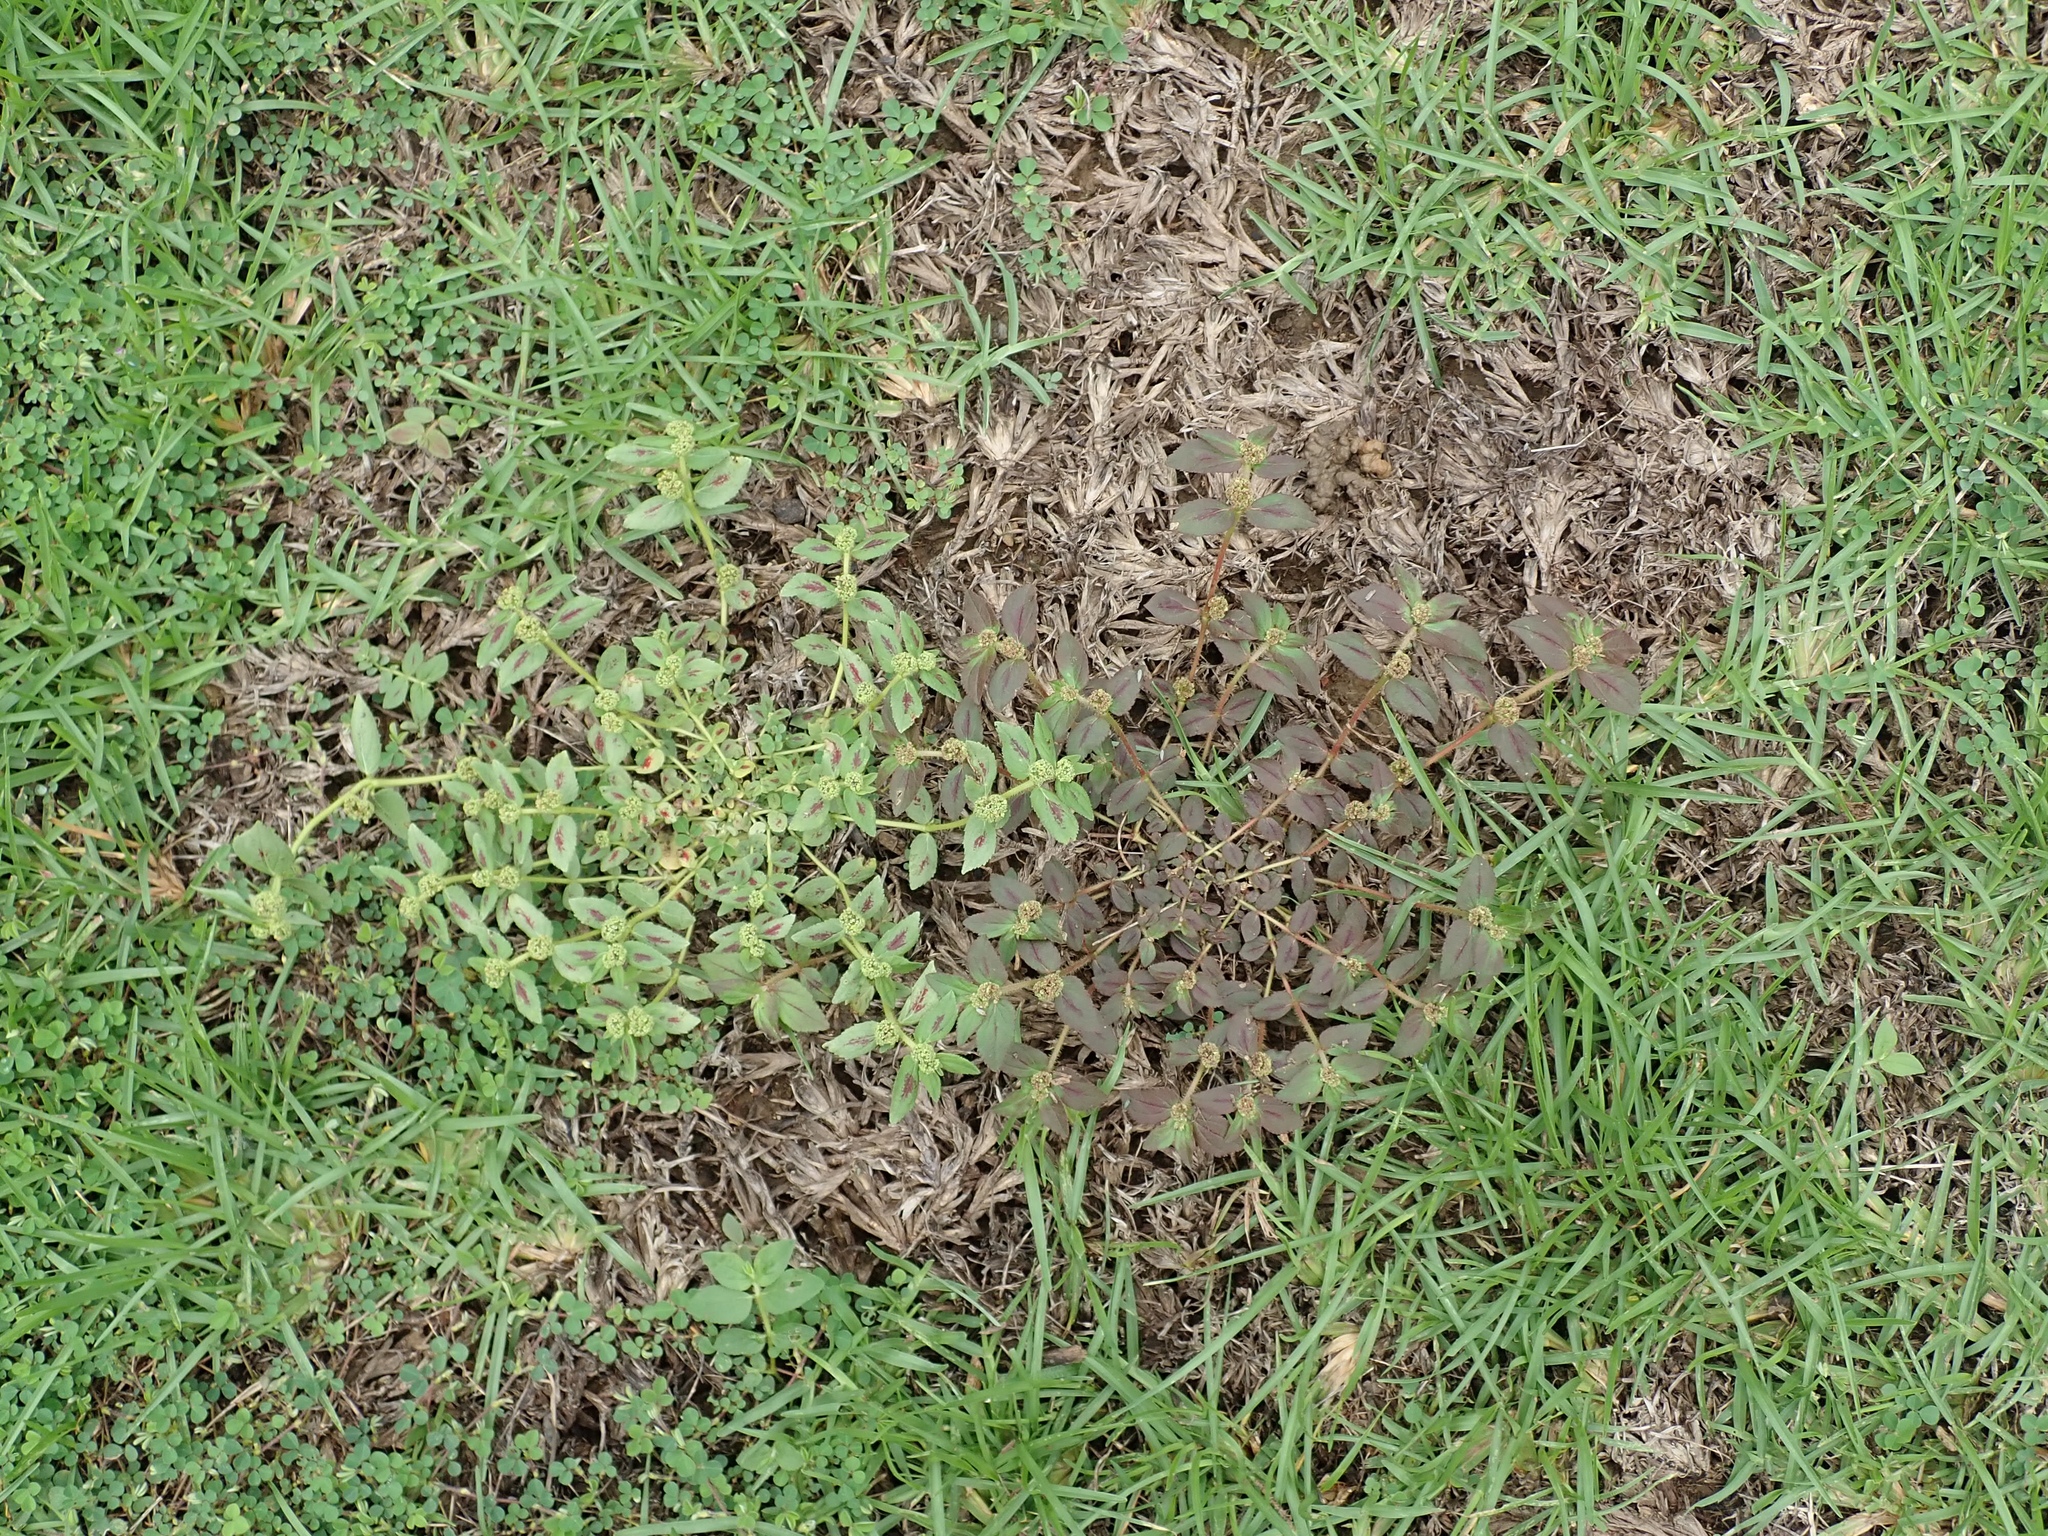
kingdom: Plantae
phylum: Tracheophyta
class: Magnoliopsida
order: Malpighiales
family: Euphorbiaceae
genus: Euphorbia
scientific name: Euphorbia hirta
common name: Pillpod sandmat
